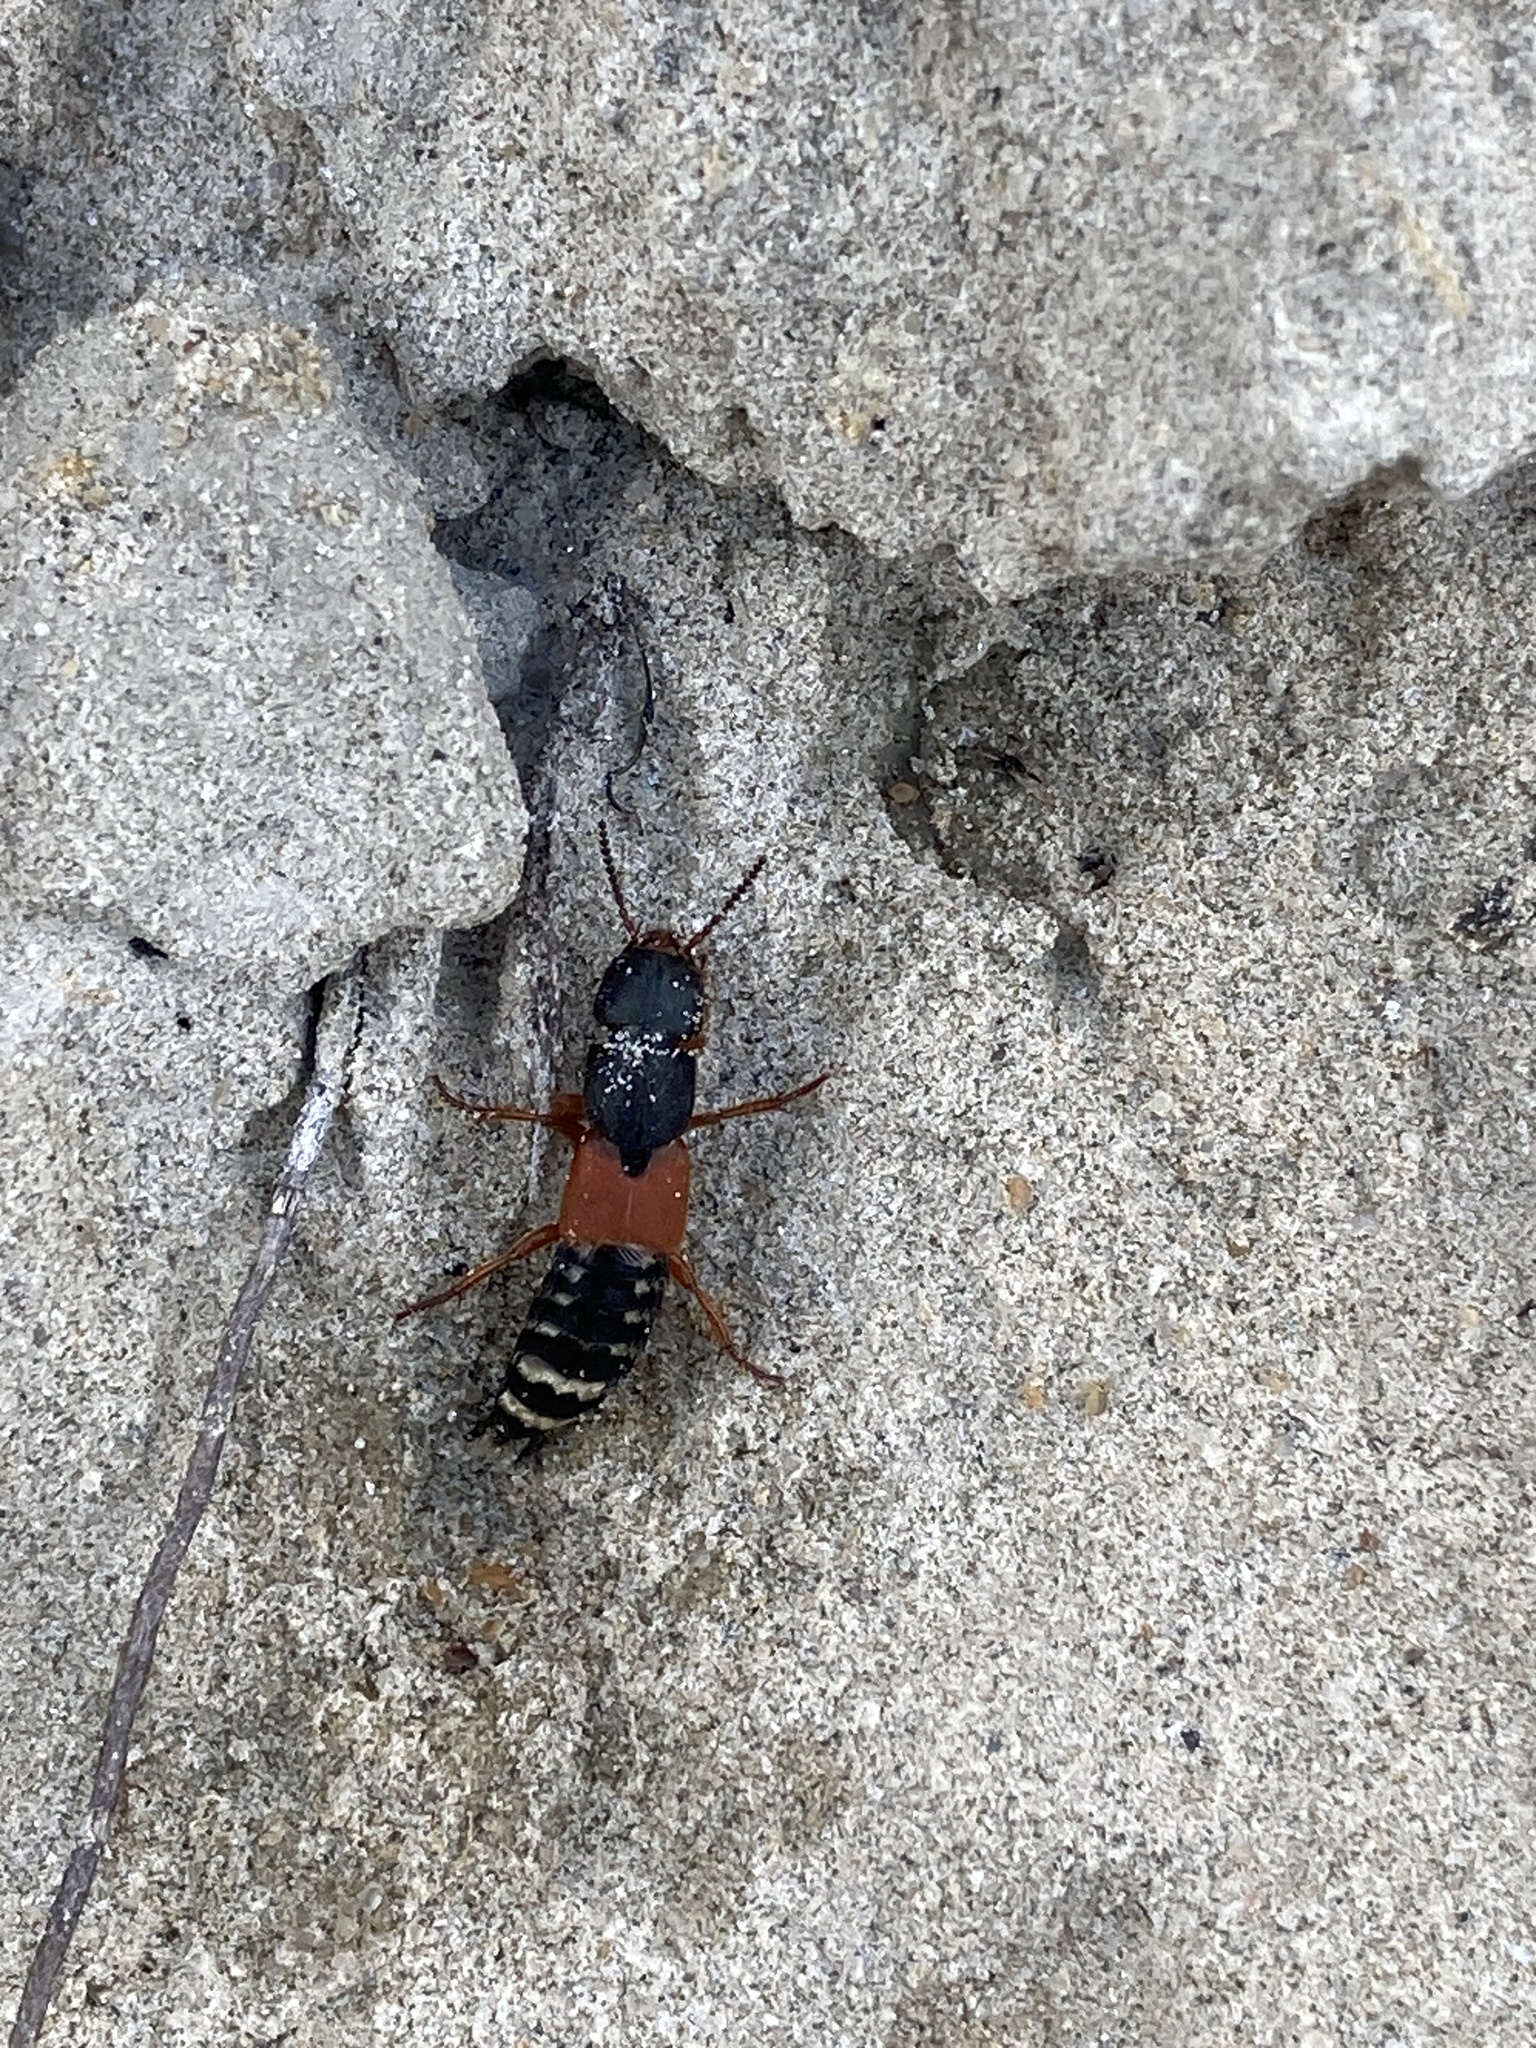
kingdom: Animalia
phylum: Arthropoda
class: Insecta
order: Coleoptera
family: Staphylinidae
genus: Platydracus
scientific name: Platydracus stercorarius
